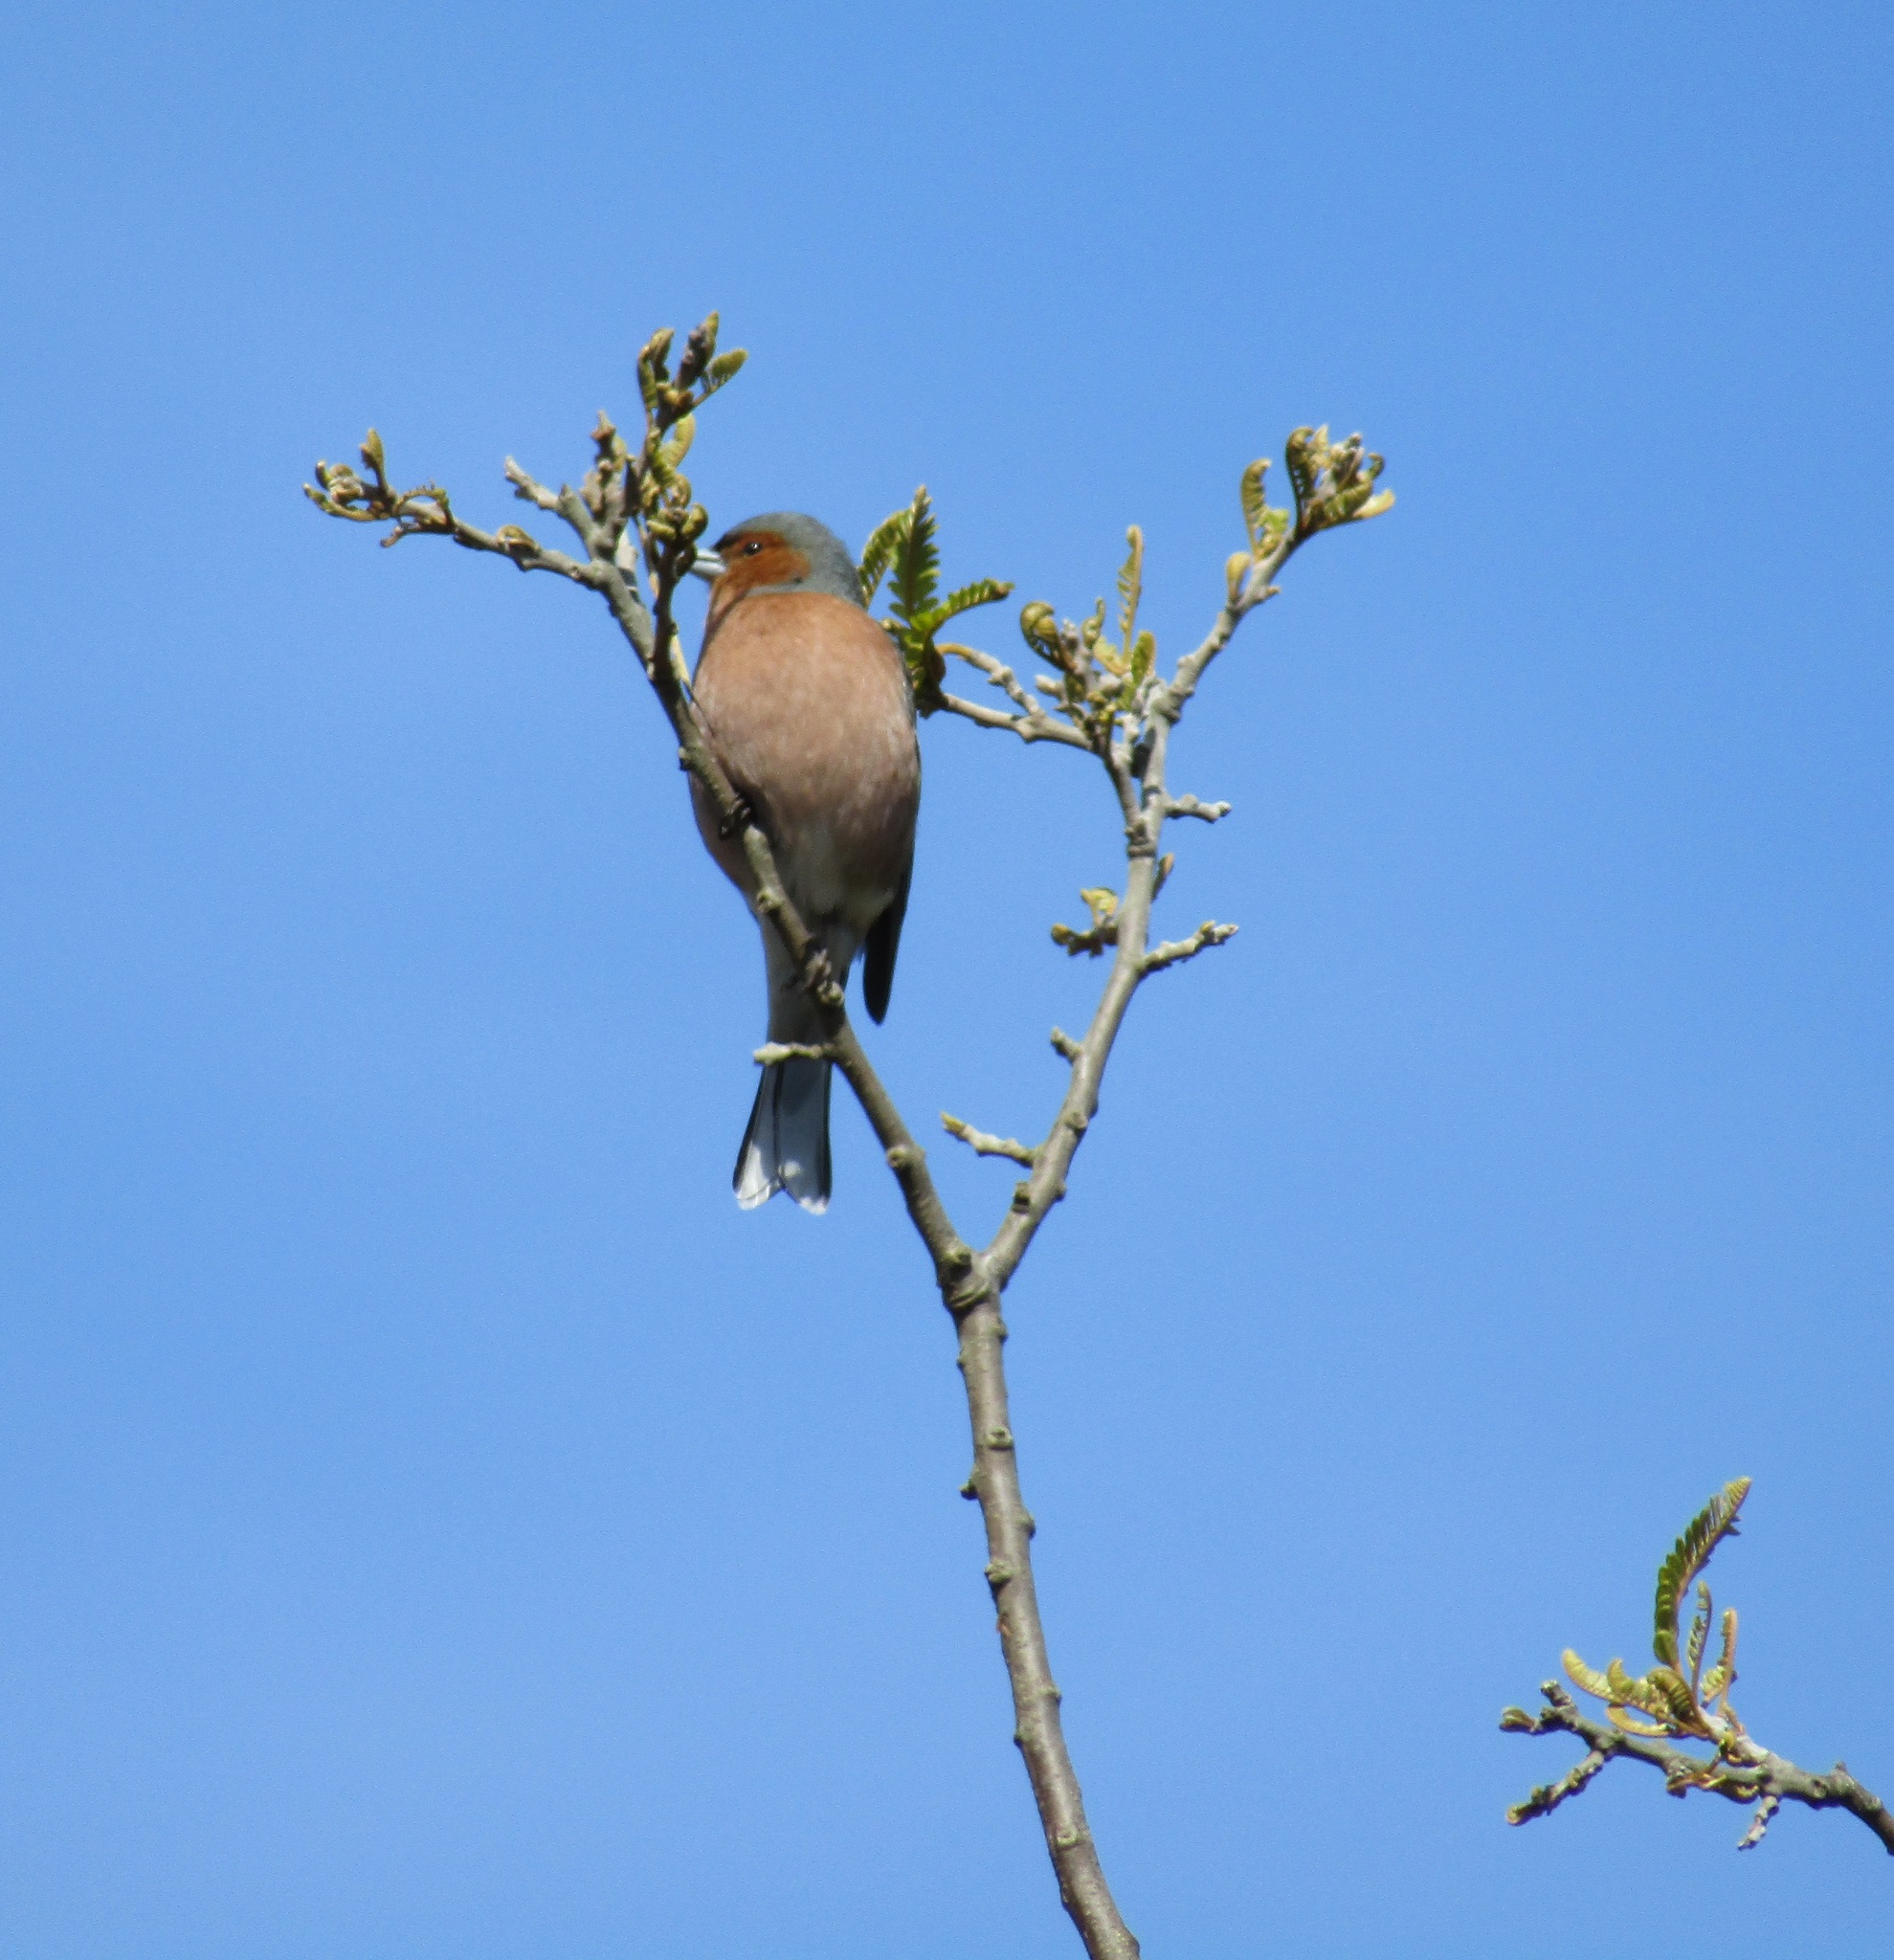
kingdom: Animalia
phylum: Chordata
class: Aves
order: Passeriformes
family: Fringillidae
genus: Fringilla
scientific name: Fringilla coelebs
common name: Common chaffinch
